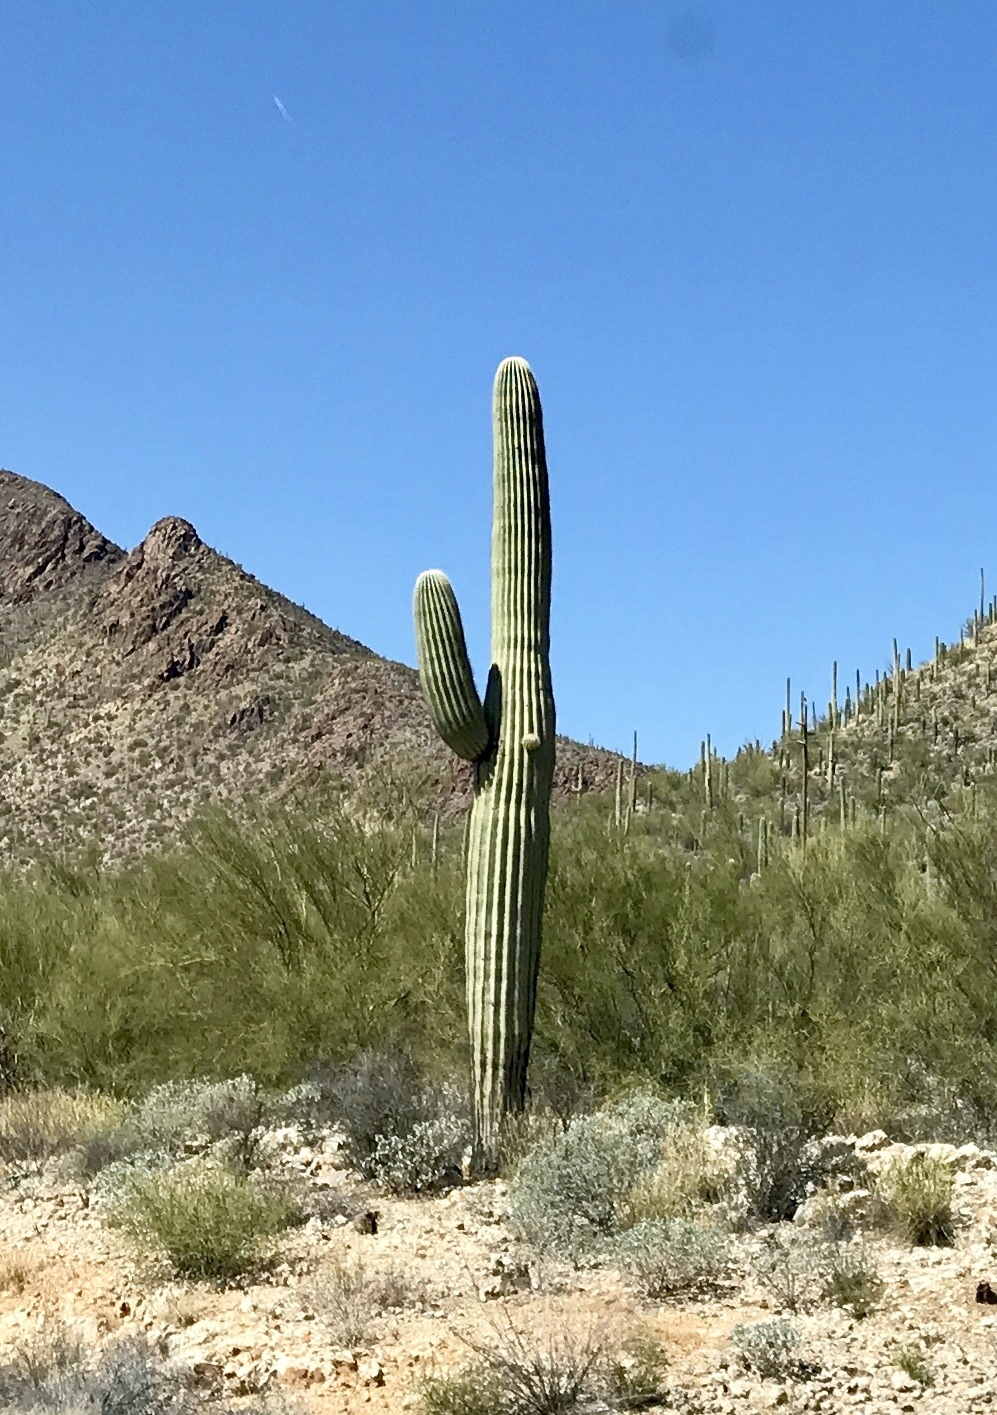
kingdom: Plantae
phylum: Tracheophyta
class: Magnoliopsida
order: Caryophyllales
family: Cactaceae
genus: Carnegiea
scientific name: Carnegiea gigantea
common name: Saguaro
